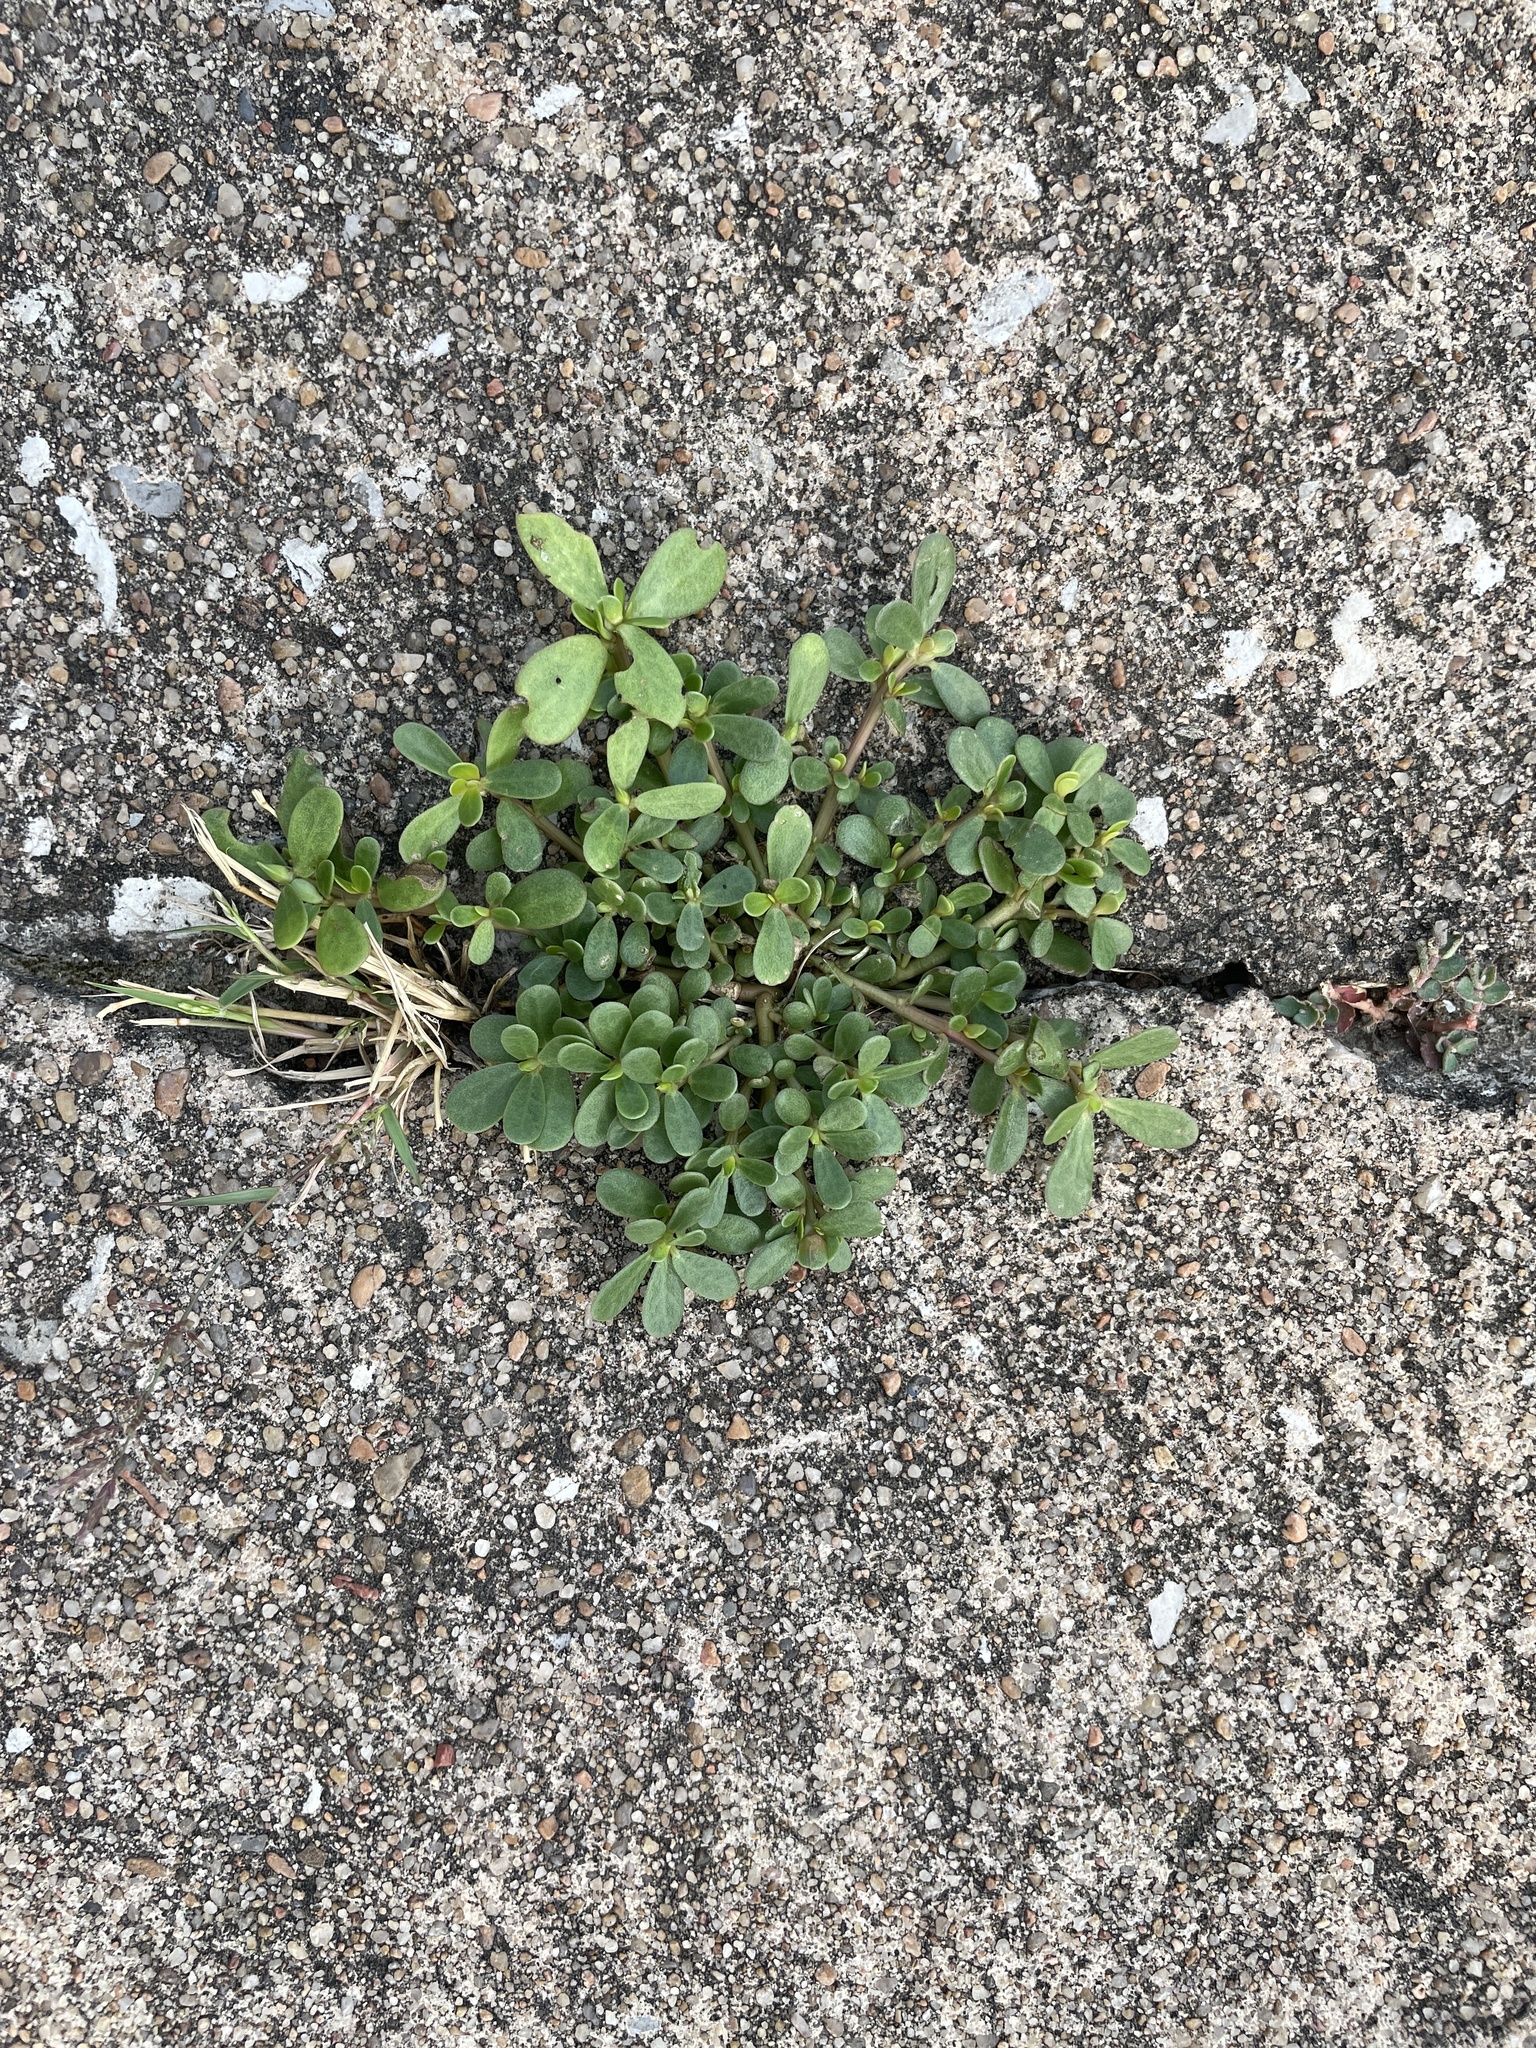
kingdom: Plantae
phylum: Tracheophyta
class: Magnoliopsida
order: Caryophyllales
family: Portulacaceae
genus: Portulaca
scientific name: Portulaca oleracea
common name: Common purslane
